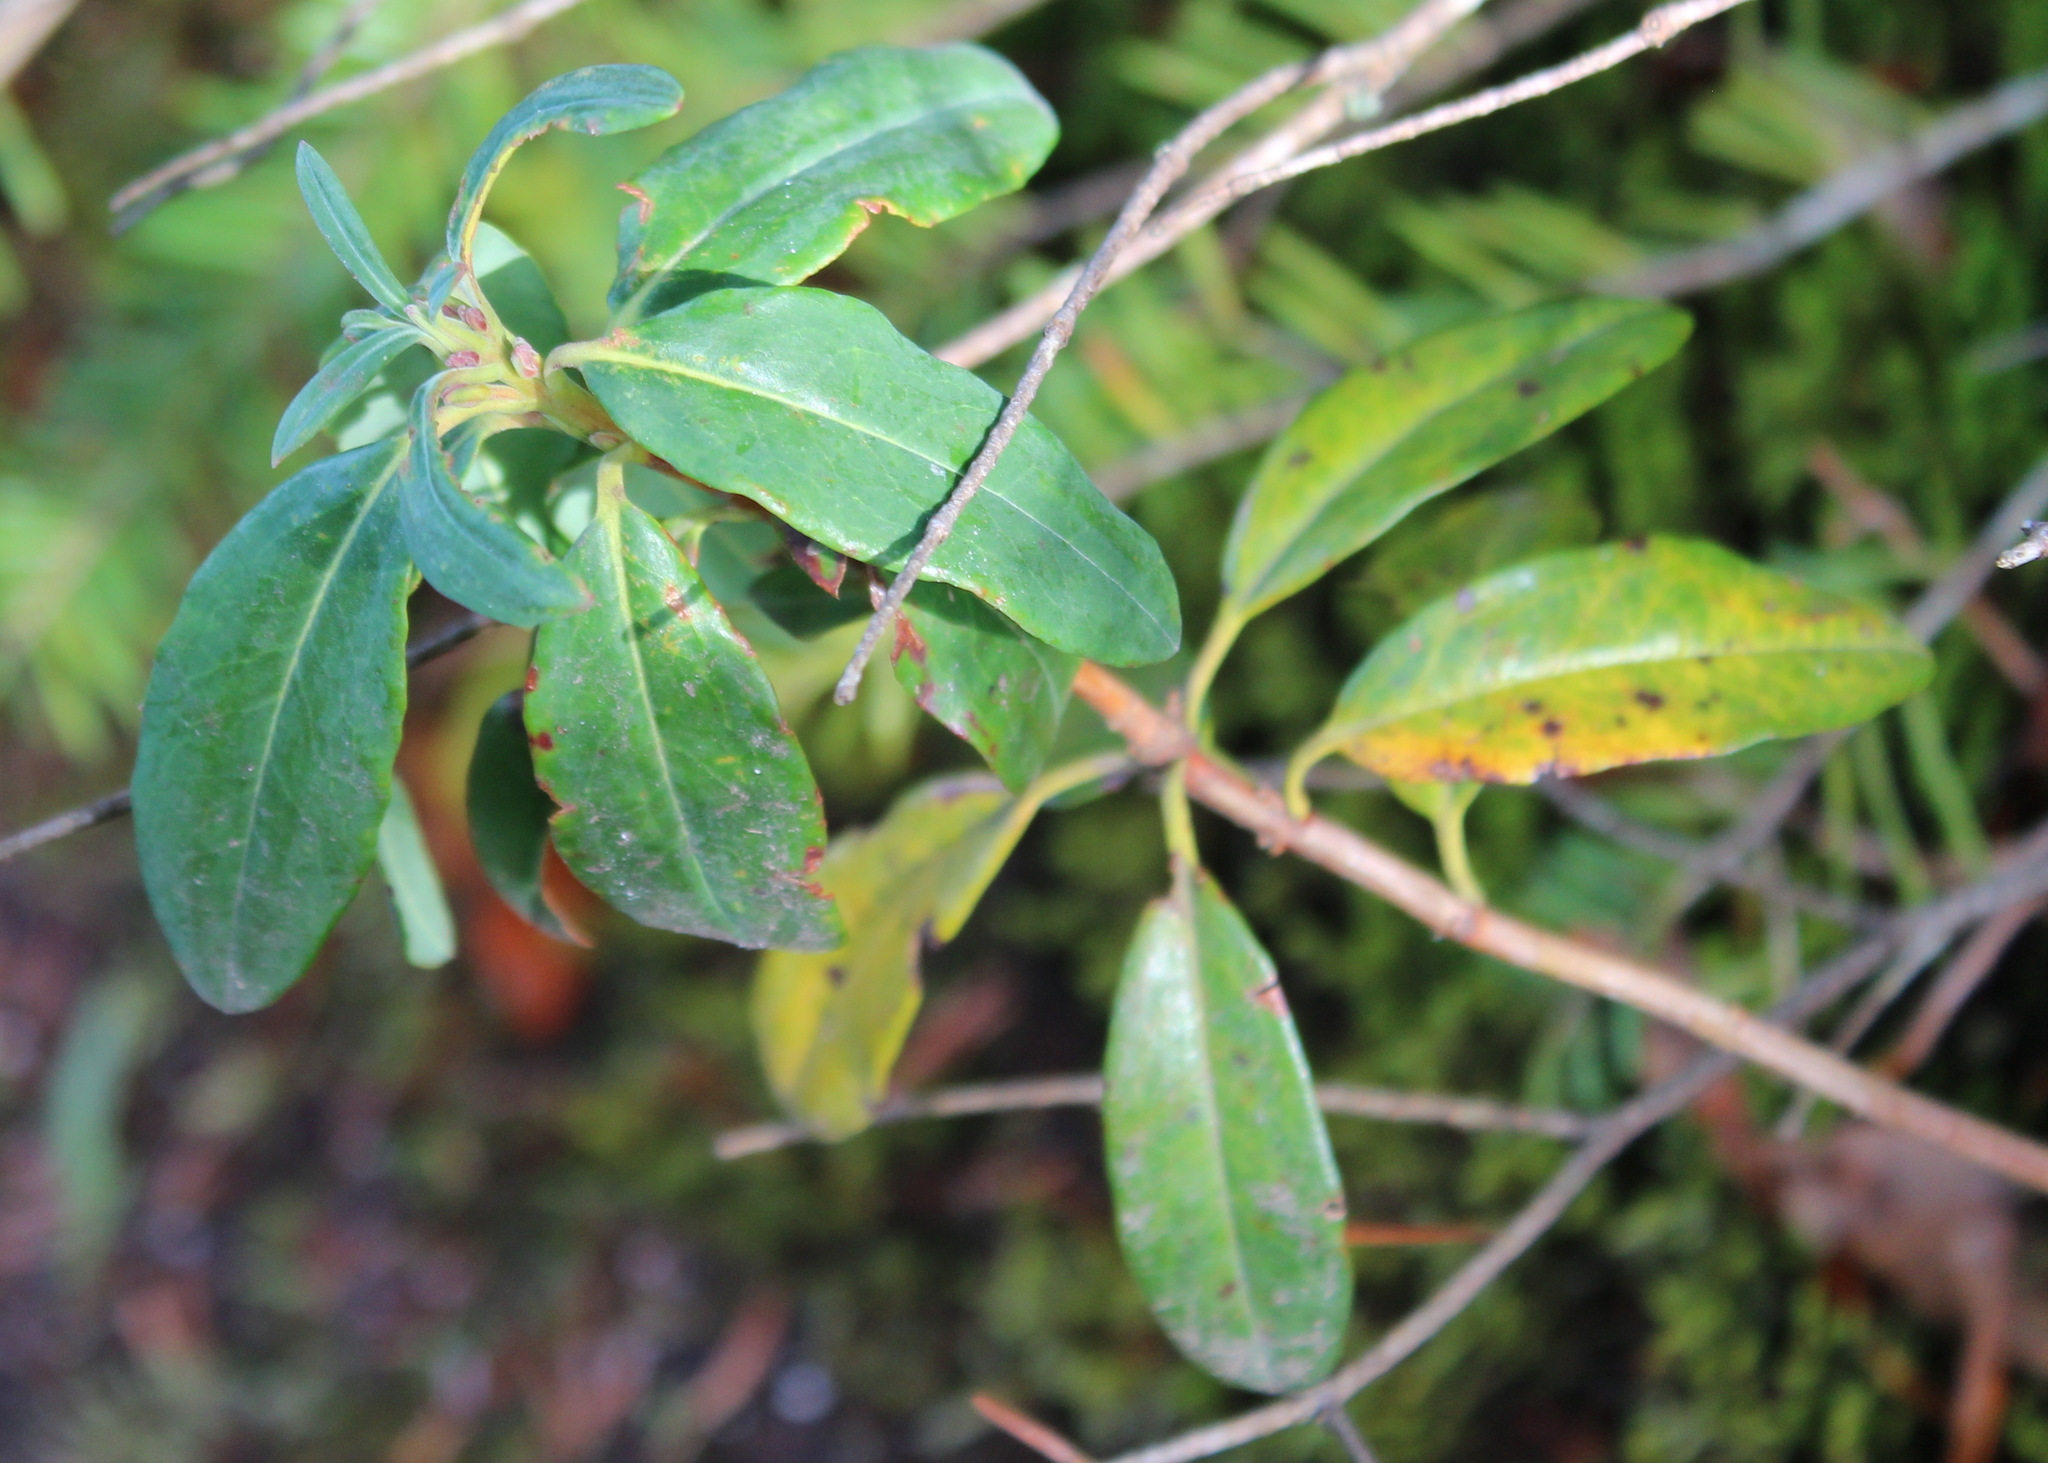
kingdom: Plantae
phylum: Tracheophyta
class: Magnoliopsida
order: Ericales
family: Ericaceae
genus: Kalmia
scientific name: Kalmia angustifolia
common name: Sheep-laurel
